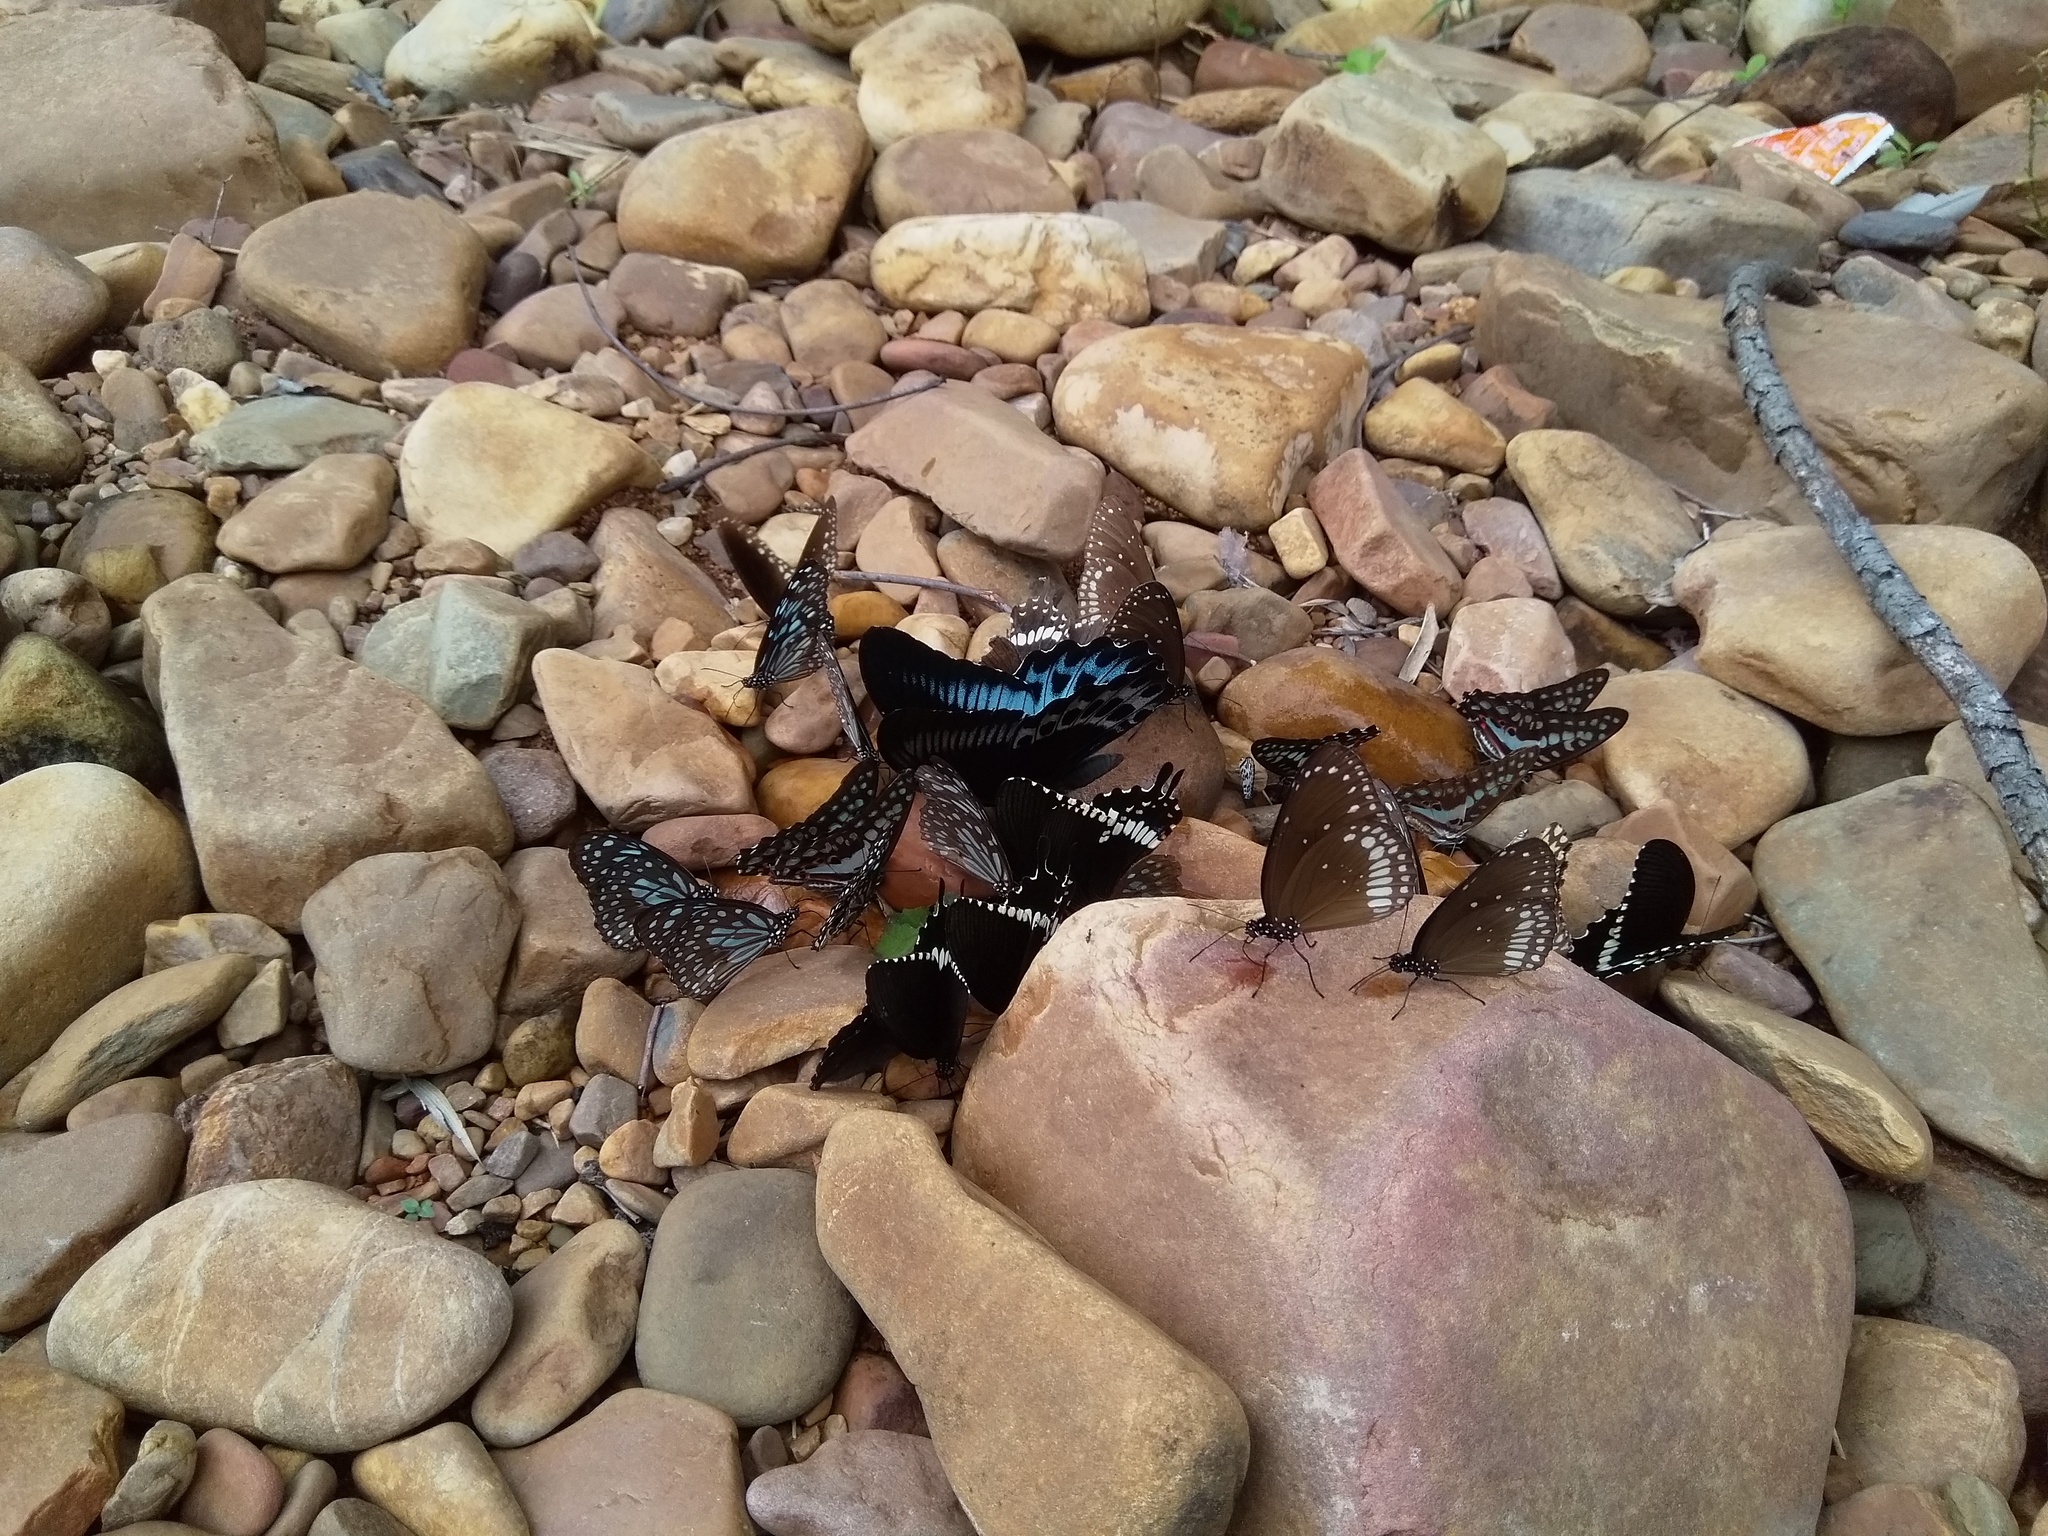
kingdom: Animalia
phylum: Arthropoda
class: Insecta
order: Lepidoptera
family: Papilionidae
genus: Papilio
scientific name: Papilio memnon
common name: Great mormon
